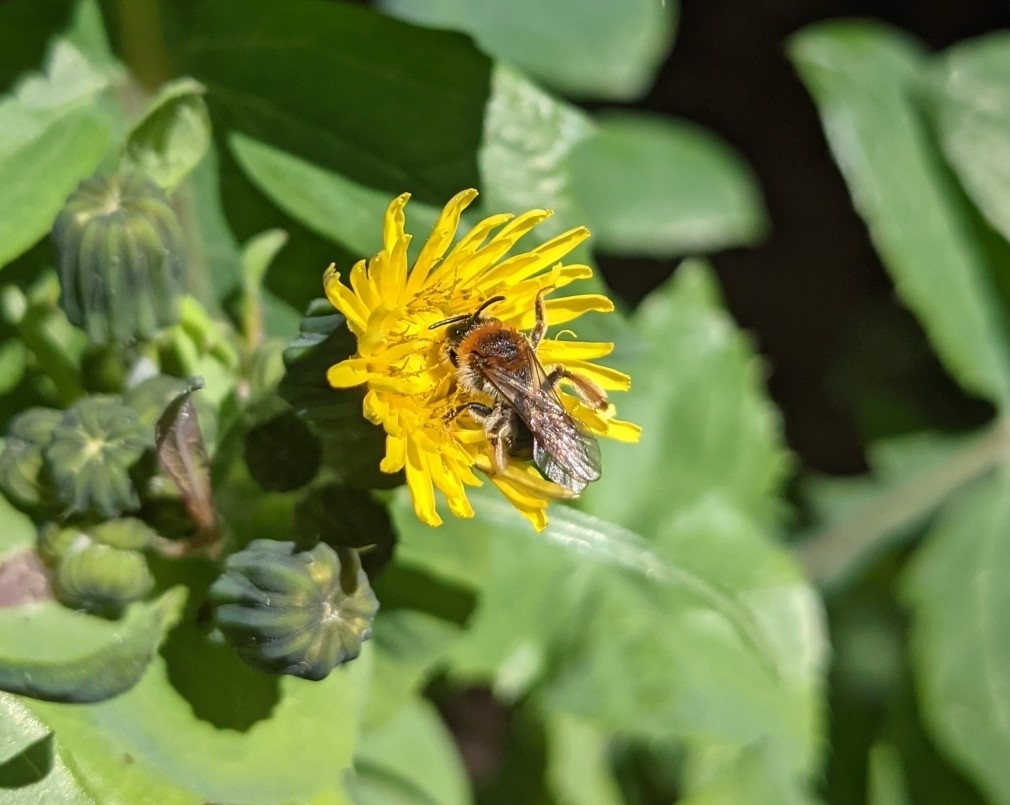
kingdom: Animalia
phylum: Arthropoda
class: Insecta
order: Hymenoptera
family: Andrenidae
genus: Andrena
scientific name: Andrena haemorrhoa
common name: Early mining bee
